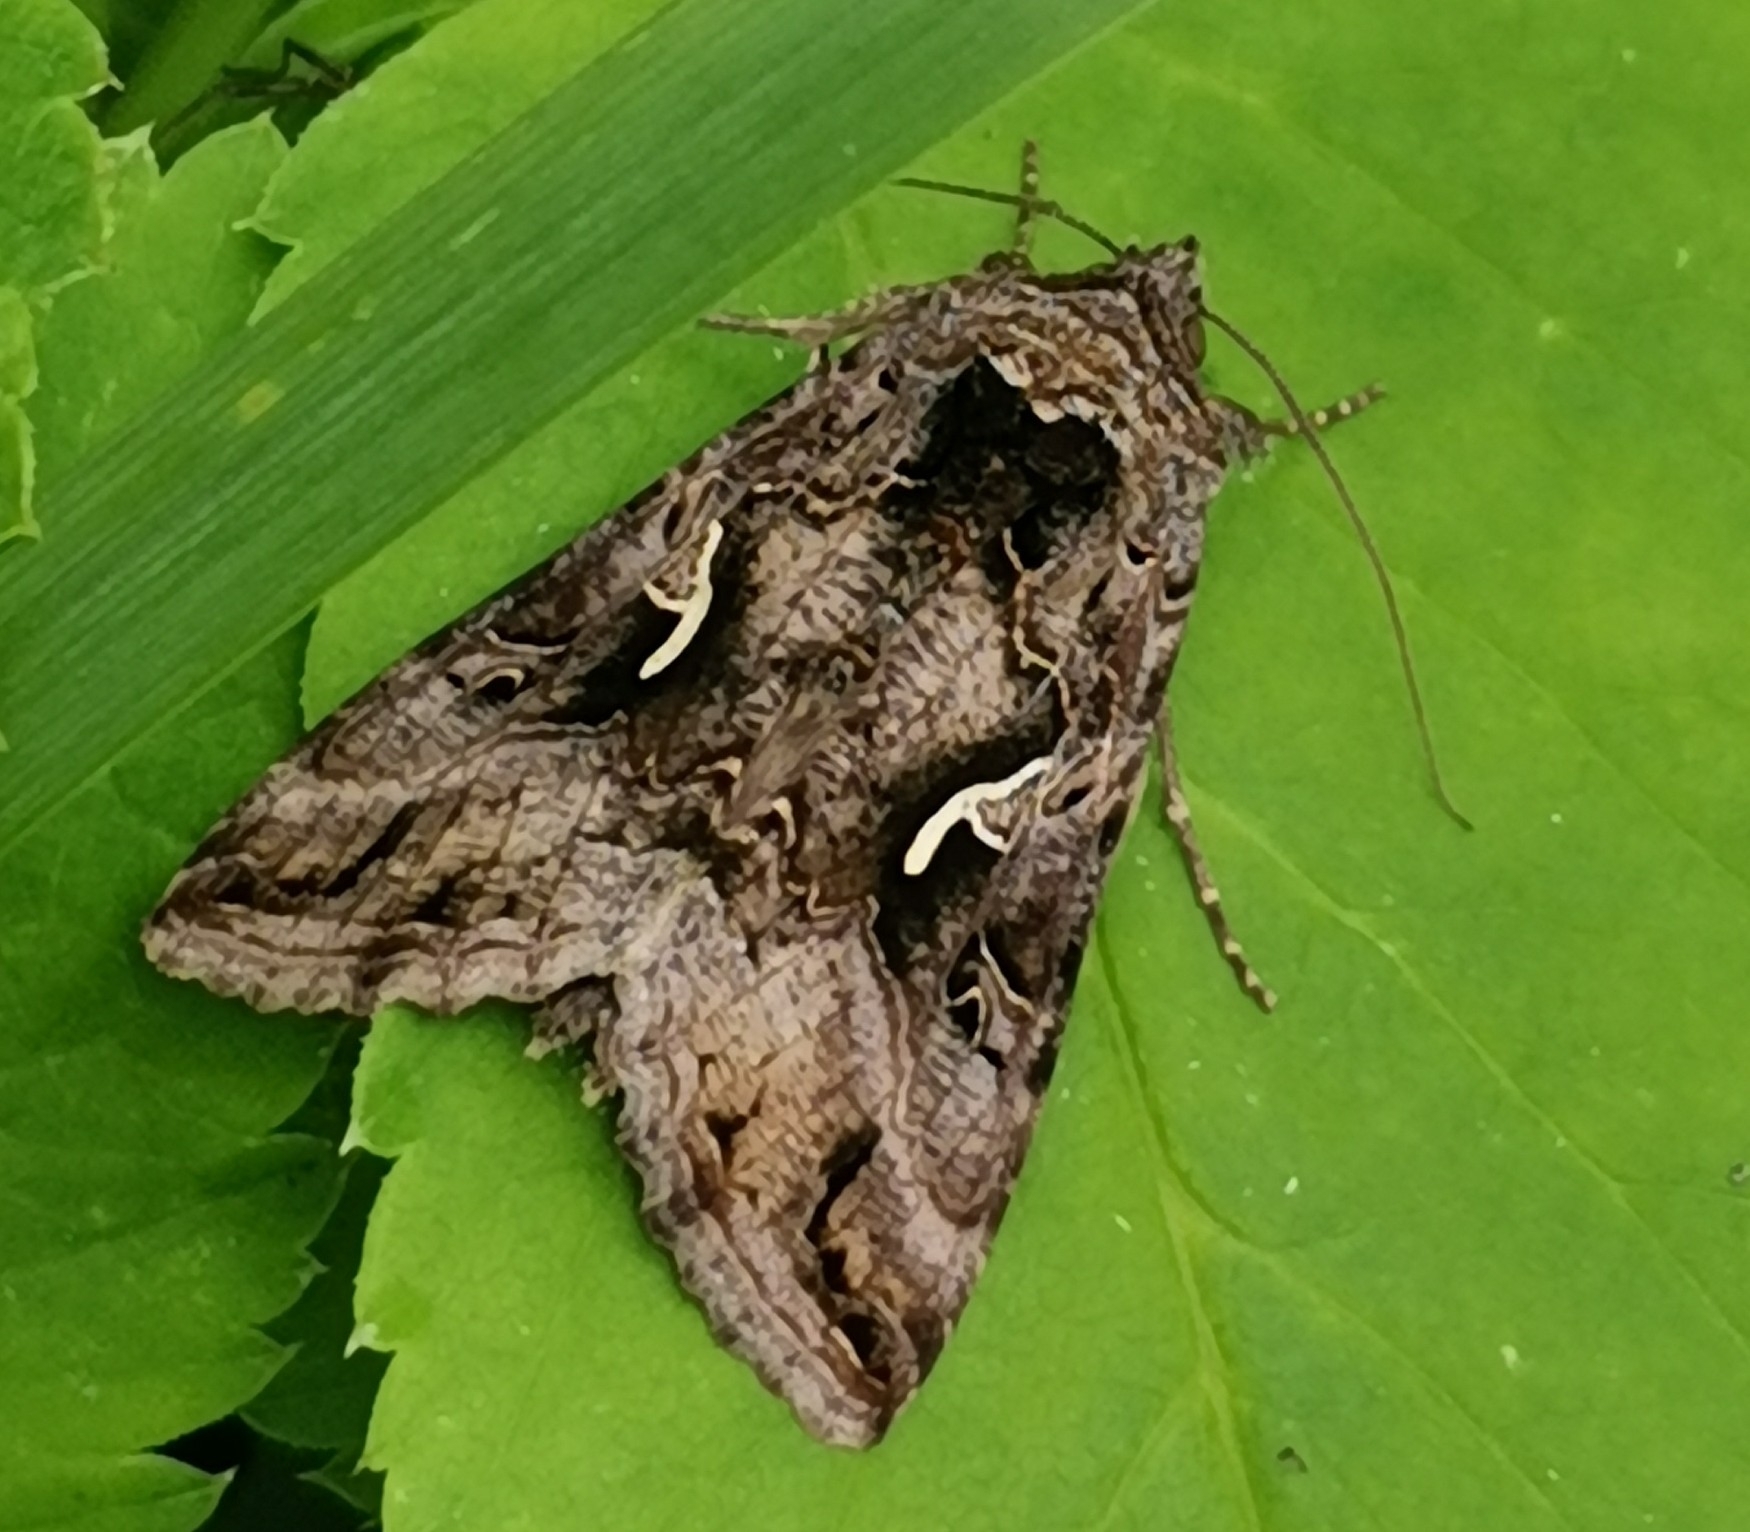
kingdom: Animalia
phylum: Arthropoda
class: Insecta
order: Lepidoptera
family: Noctuidae
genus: Autographa
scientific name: Autographa gamma
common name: Silver y
